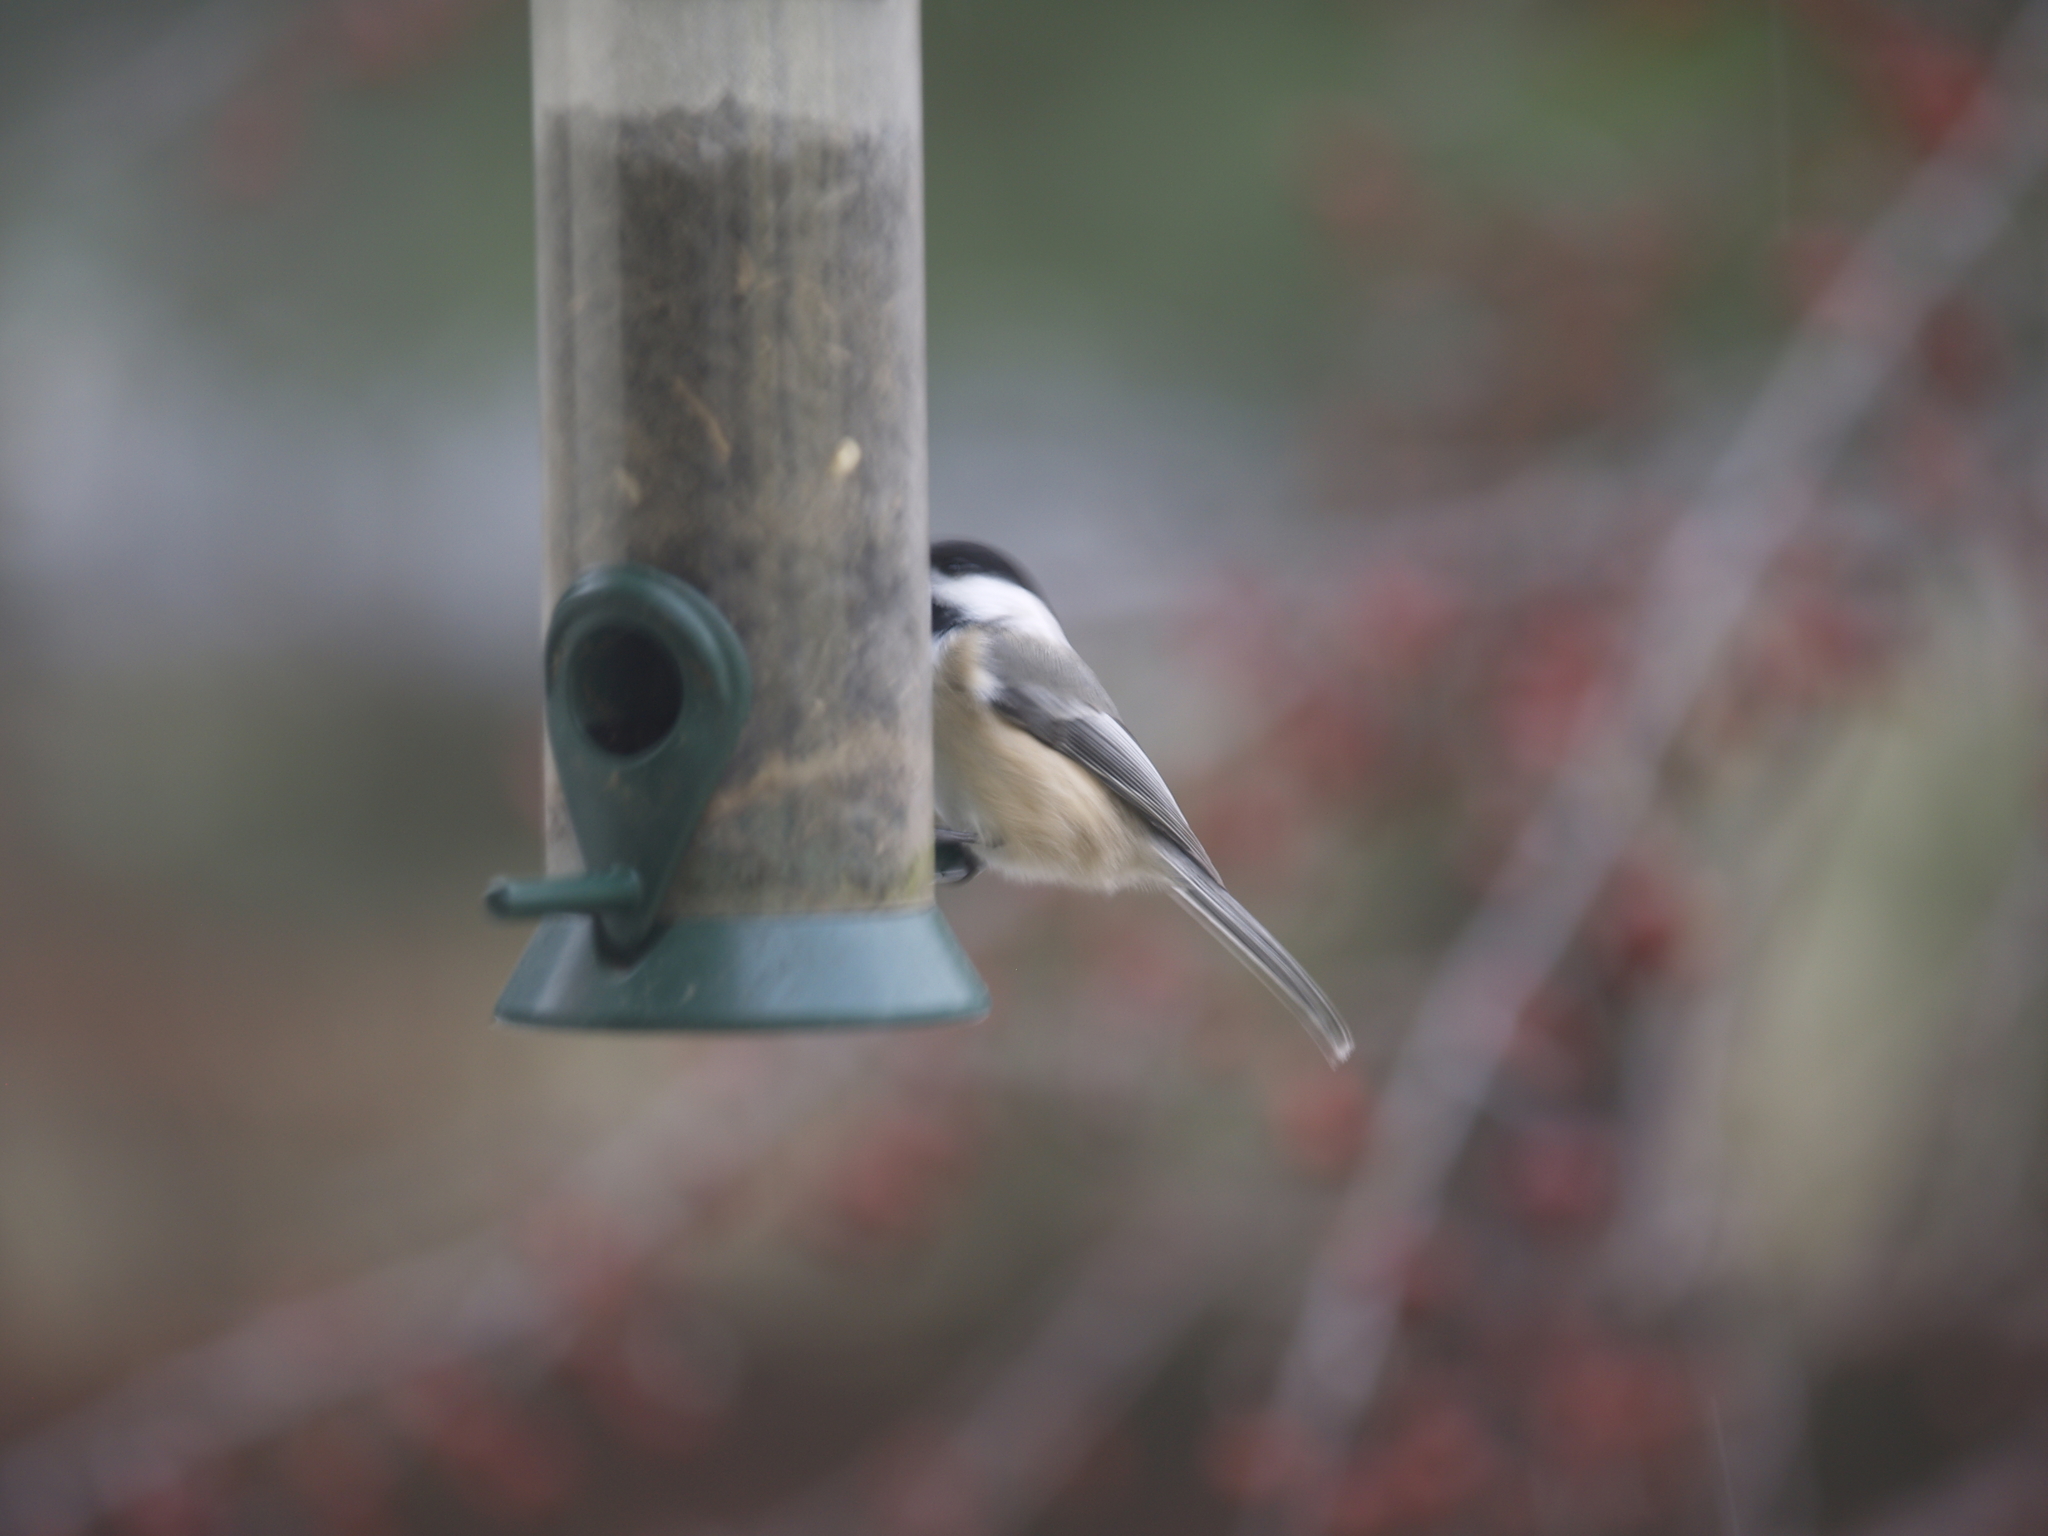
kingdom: Animalia
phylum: Chordata
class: Aves
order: Passeriformes
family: Paridae
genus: Poecile
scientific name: Poecile atricapillus
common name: Black-capped chickadee
